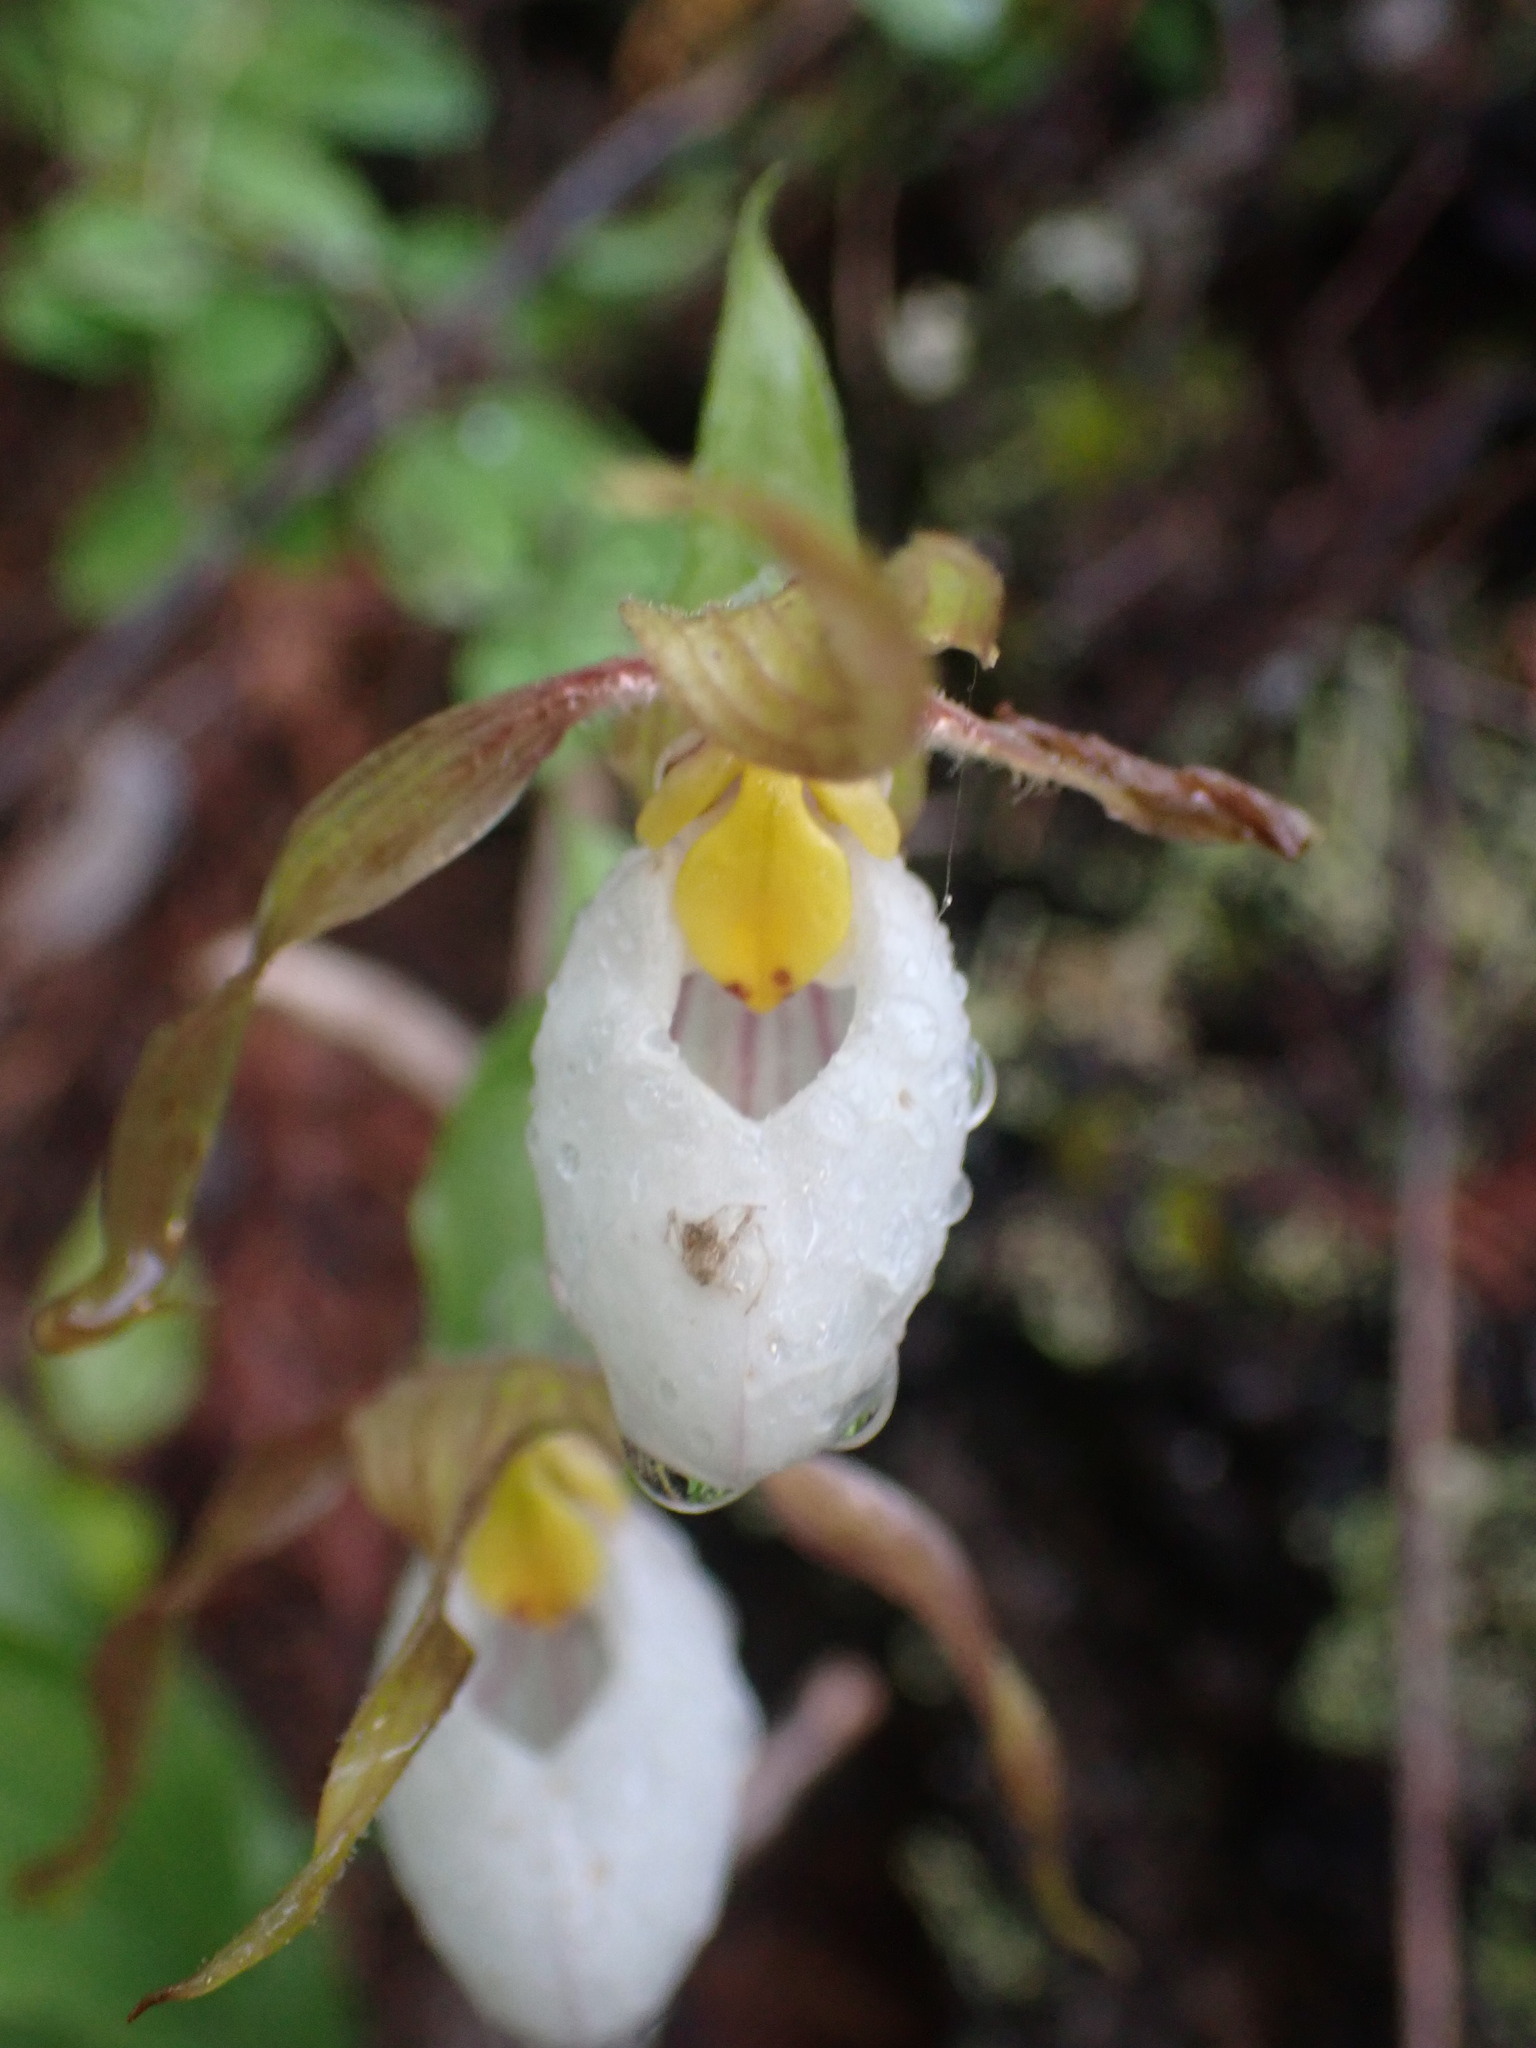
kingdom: Plantae
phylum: Tracheophyta
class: Liliopsida
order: Asparagales
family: Orchidaceae
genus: Cypripedium
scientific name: Cypripedium montanum
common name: Mountain lady's-slipper
